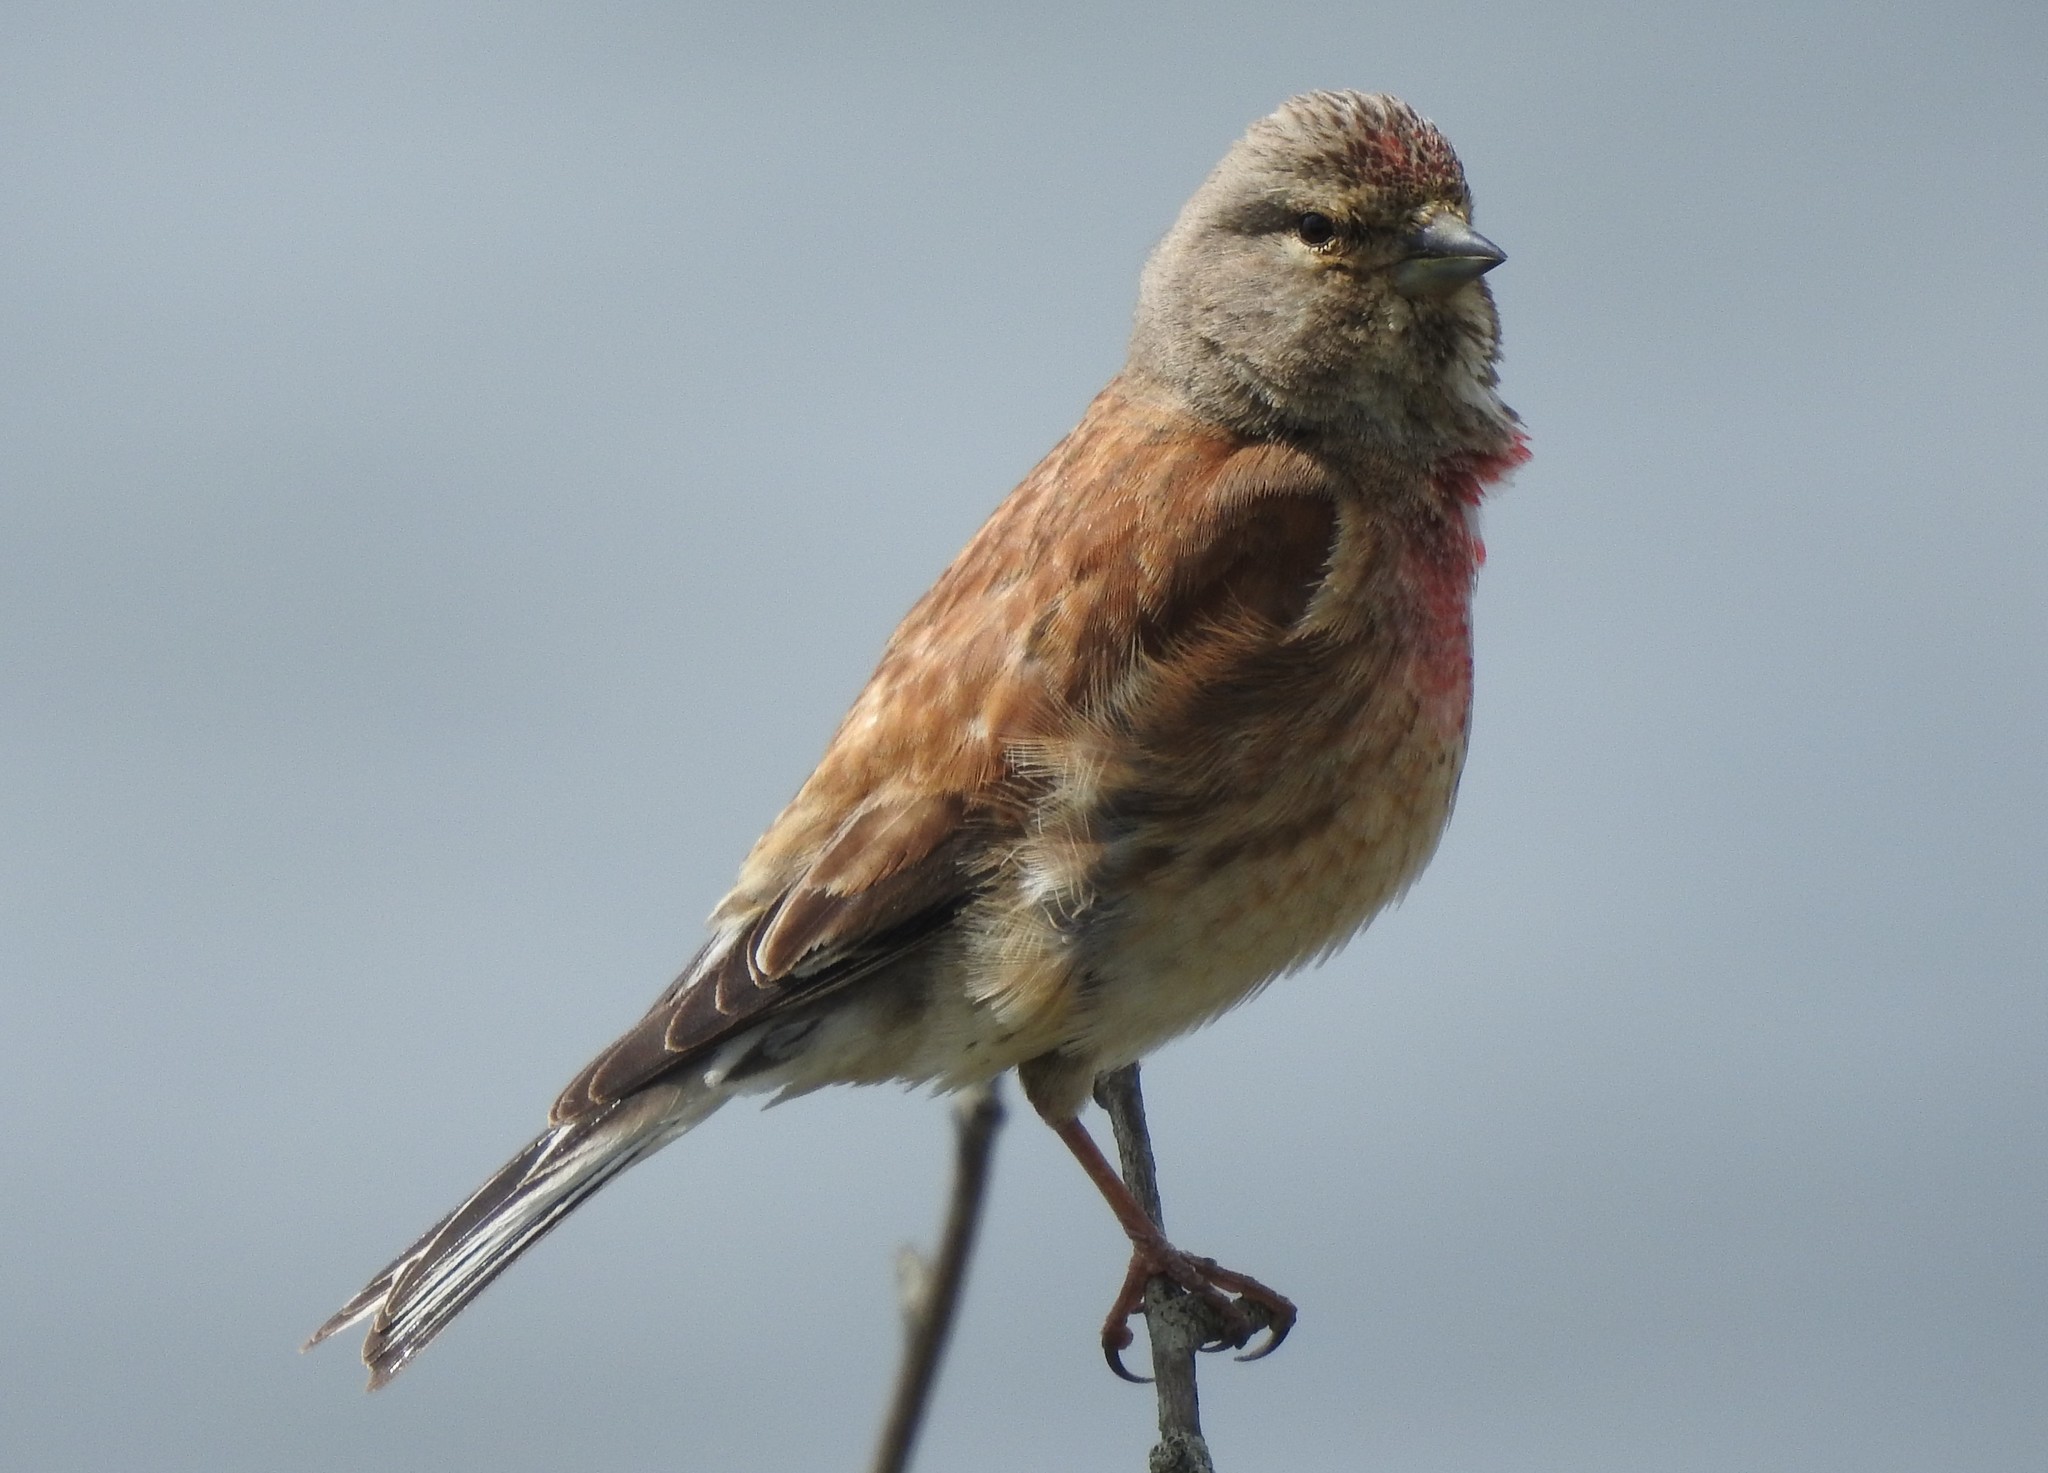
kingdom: Animalia
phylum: Chordata
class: Aves
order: Passeriformes
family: Fringillidae
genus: Linaria
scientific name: Linaria cannabina
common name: Common linnet
